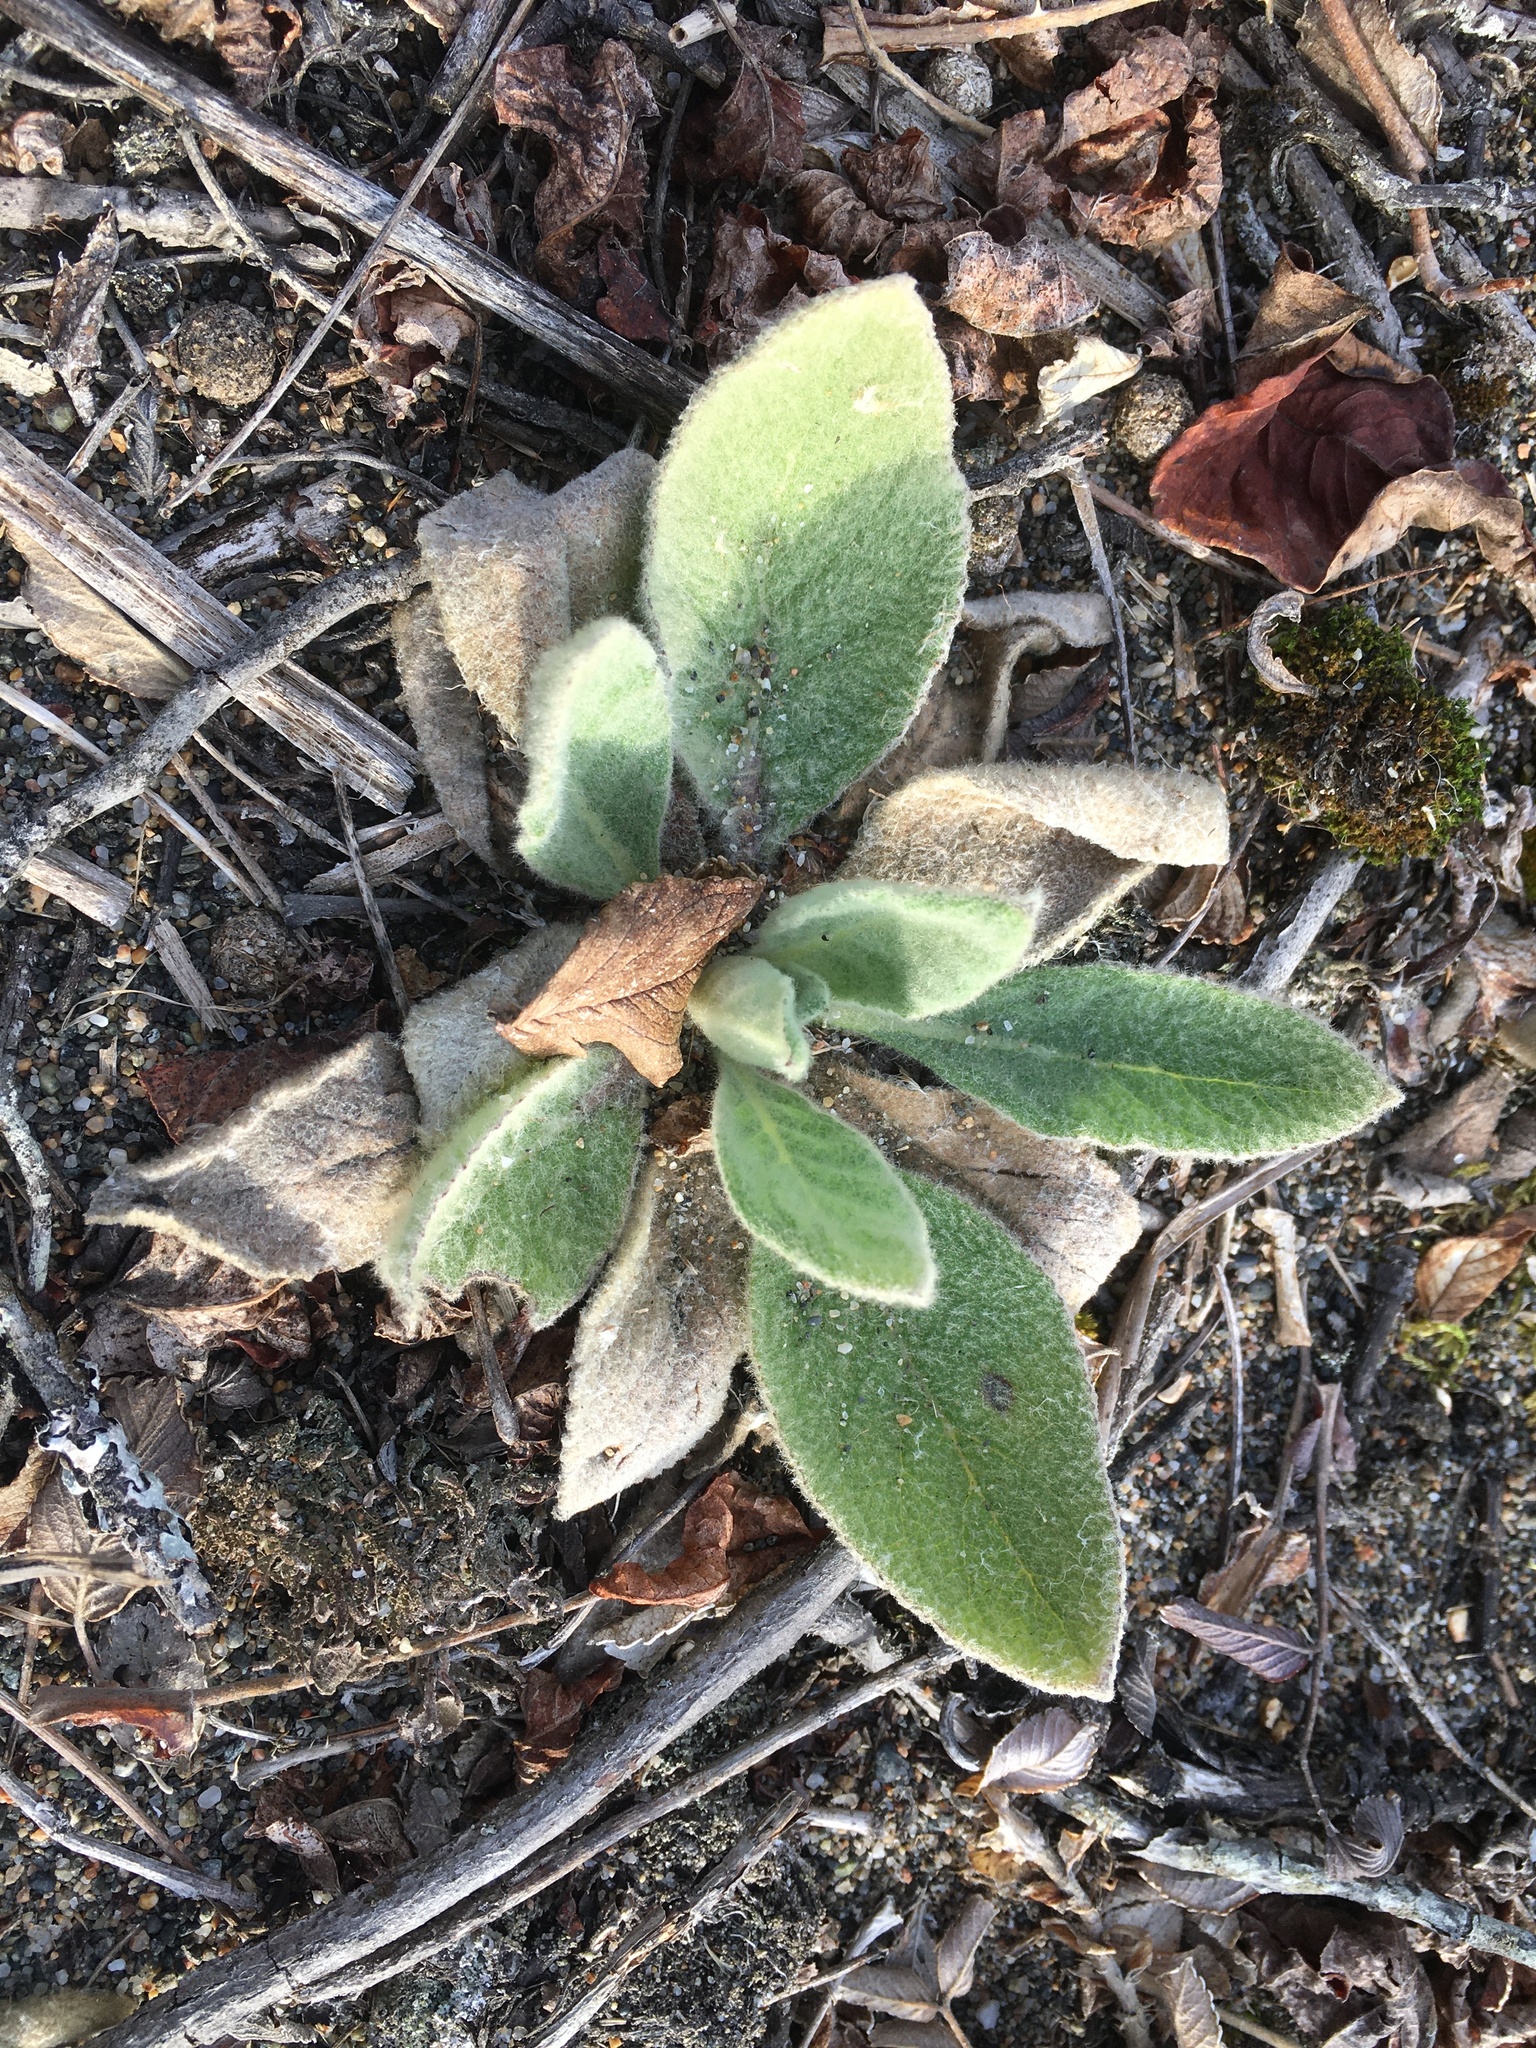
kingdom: Plantae
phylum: Tracheophyta
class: Magnoliopsida
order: Lamiales
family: Scrophulariaceae
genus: Verbascum
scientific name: Verbascum thapsus
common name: Common mullein
